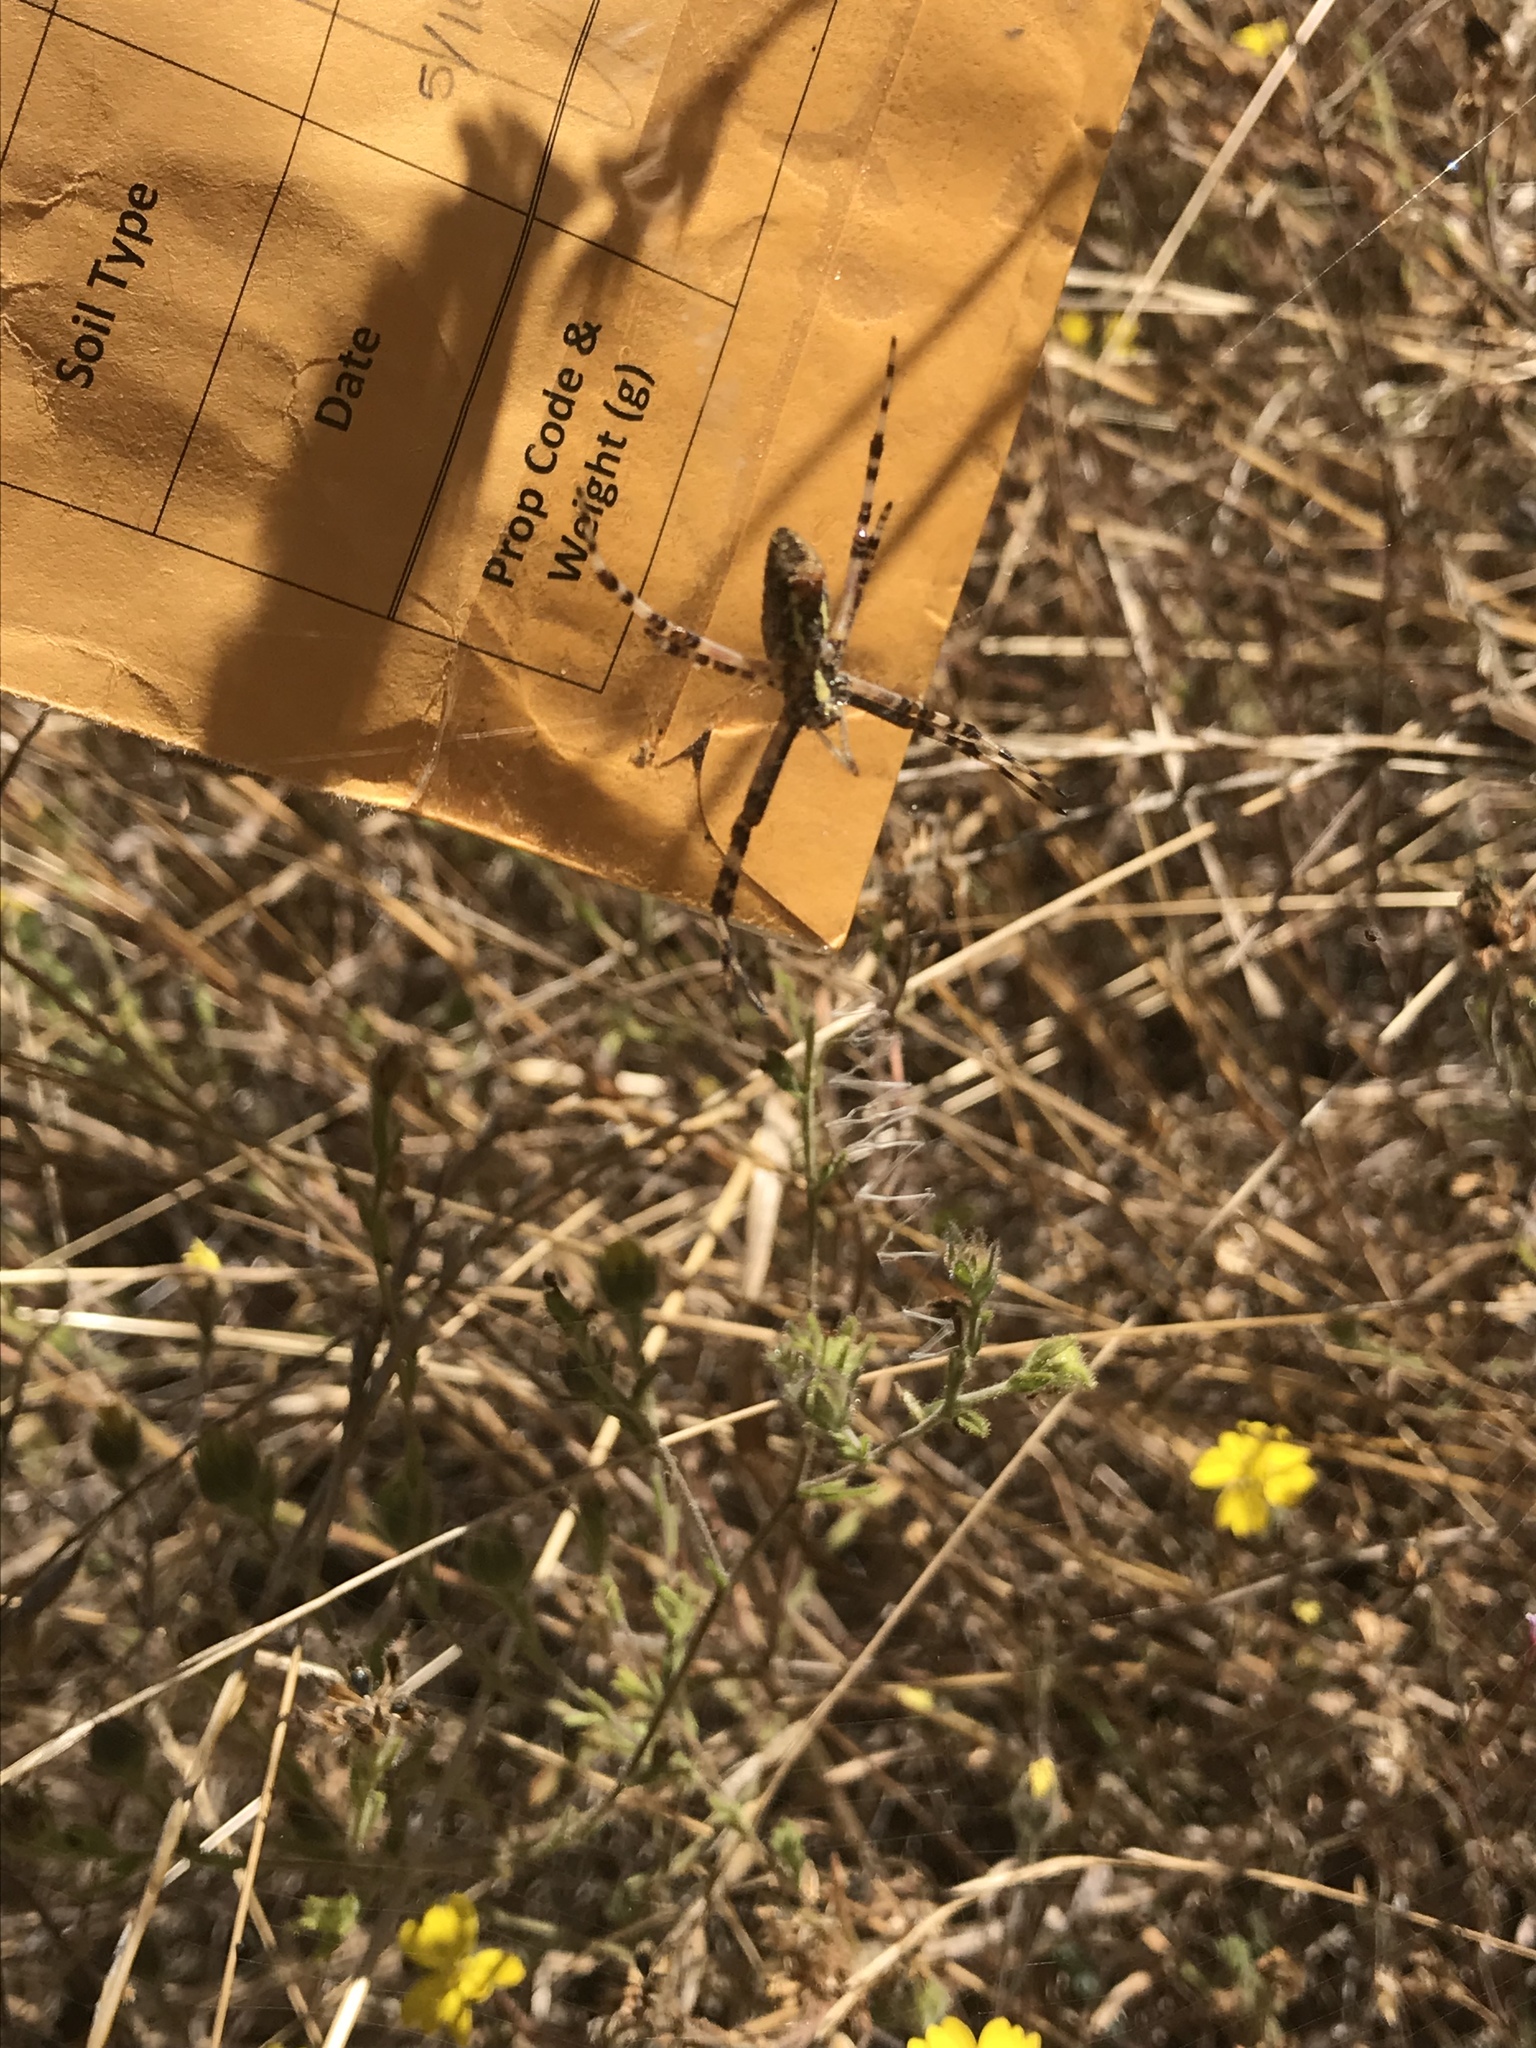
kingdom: Animalia
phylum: Arthropoda
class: Arachnida
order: Araneae
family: Araneidae
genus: Argiope
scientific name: Argiope aurantia
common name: Orb weavers
